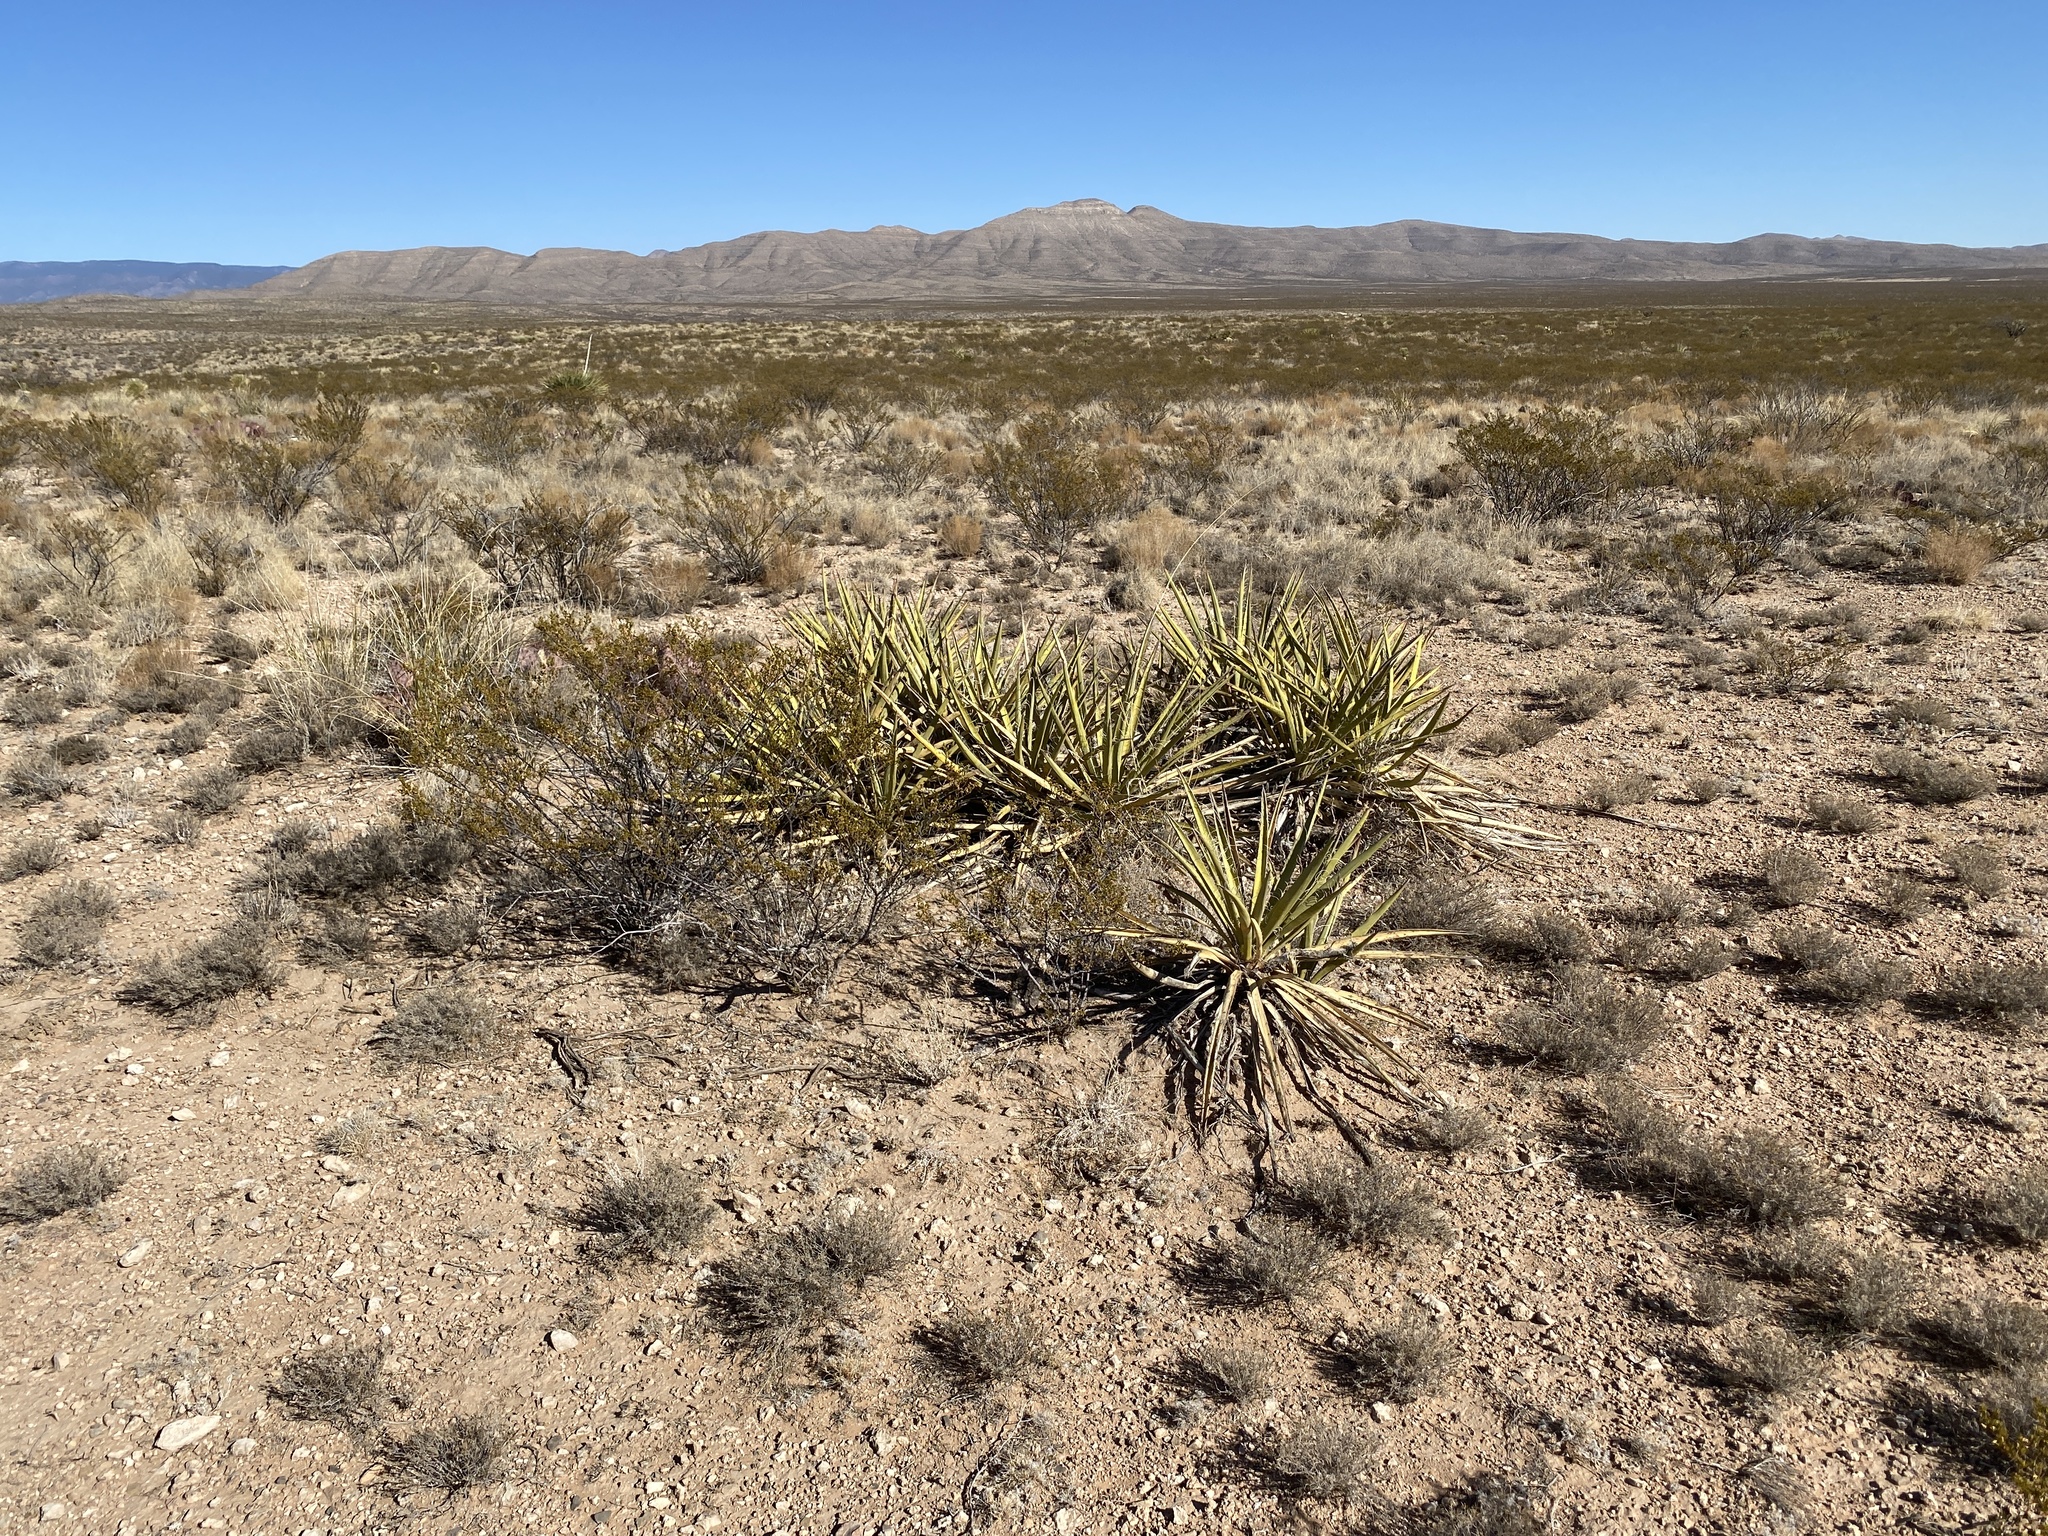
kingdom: Plantae
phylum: Tracheophyta
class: Liliopsida
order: Asparagales
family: Asparagaceae
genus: Yucca
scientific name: Yucca baccata
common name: Banana yucca
